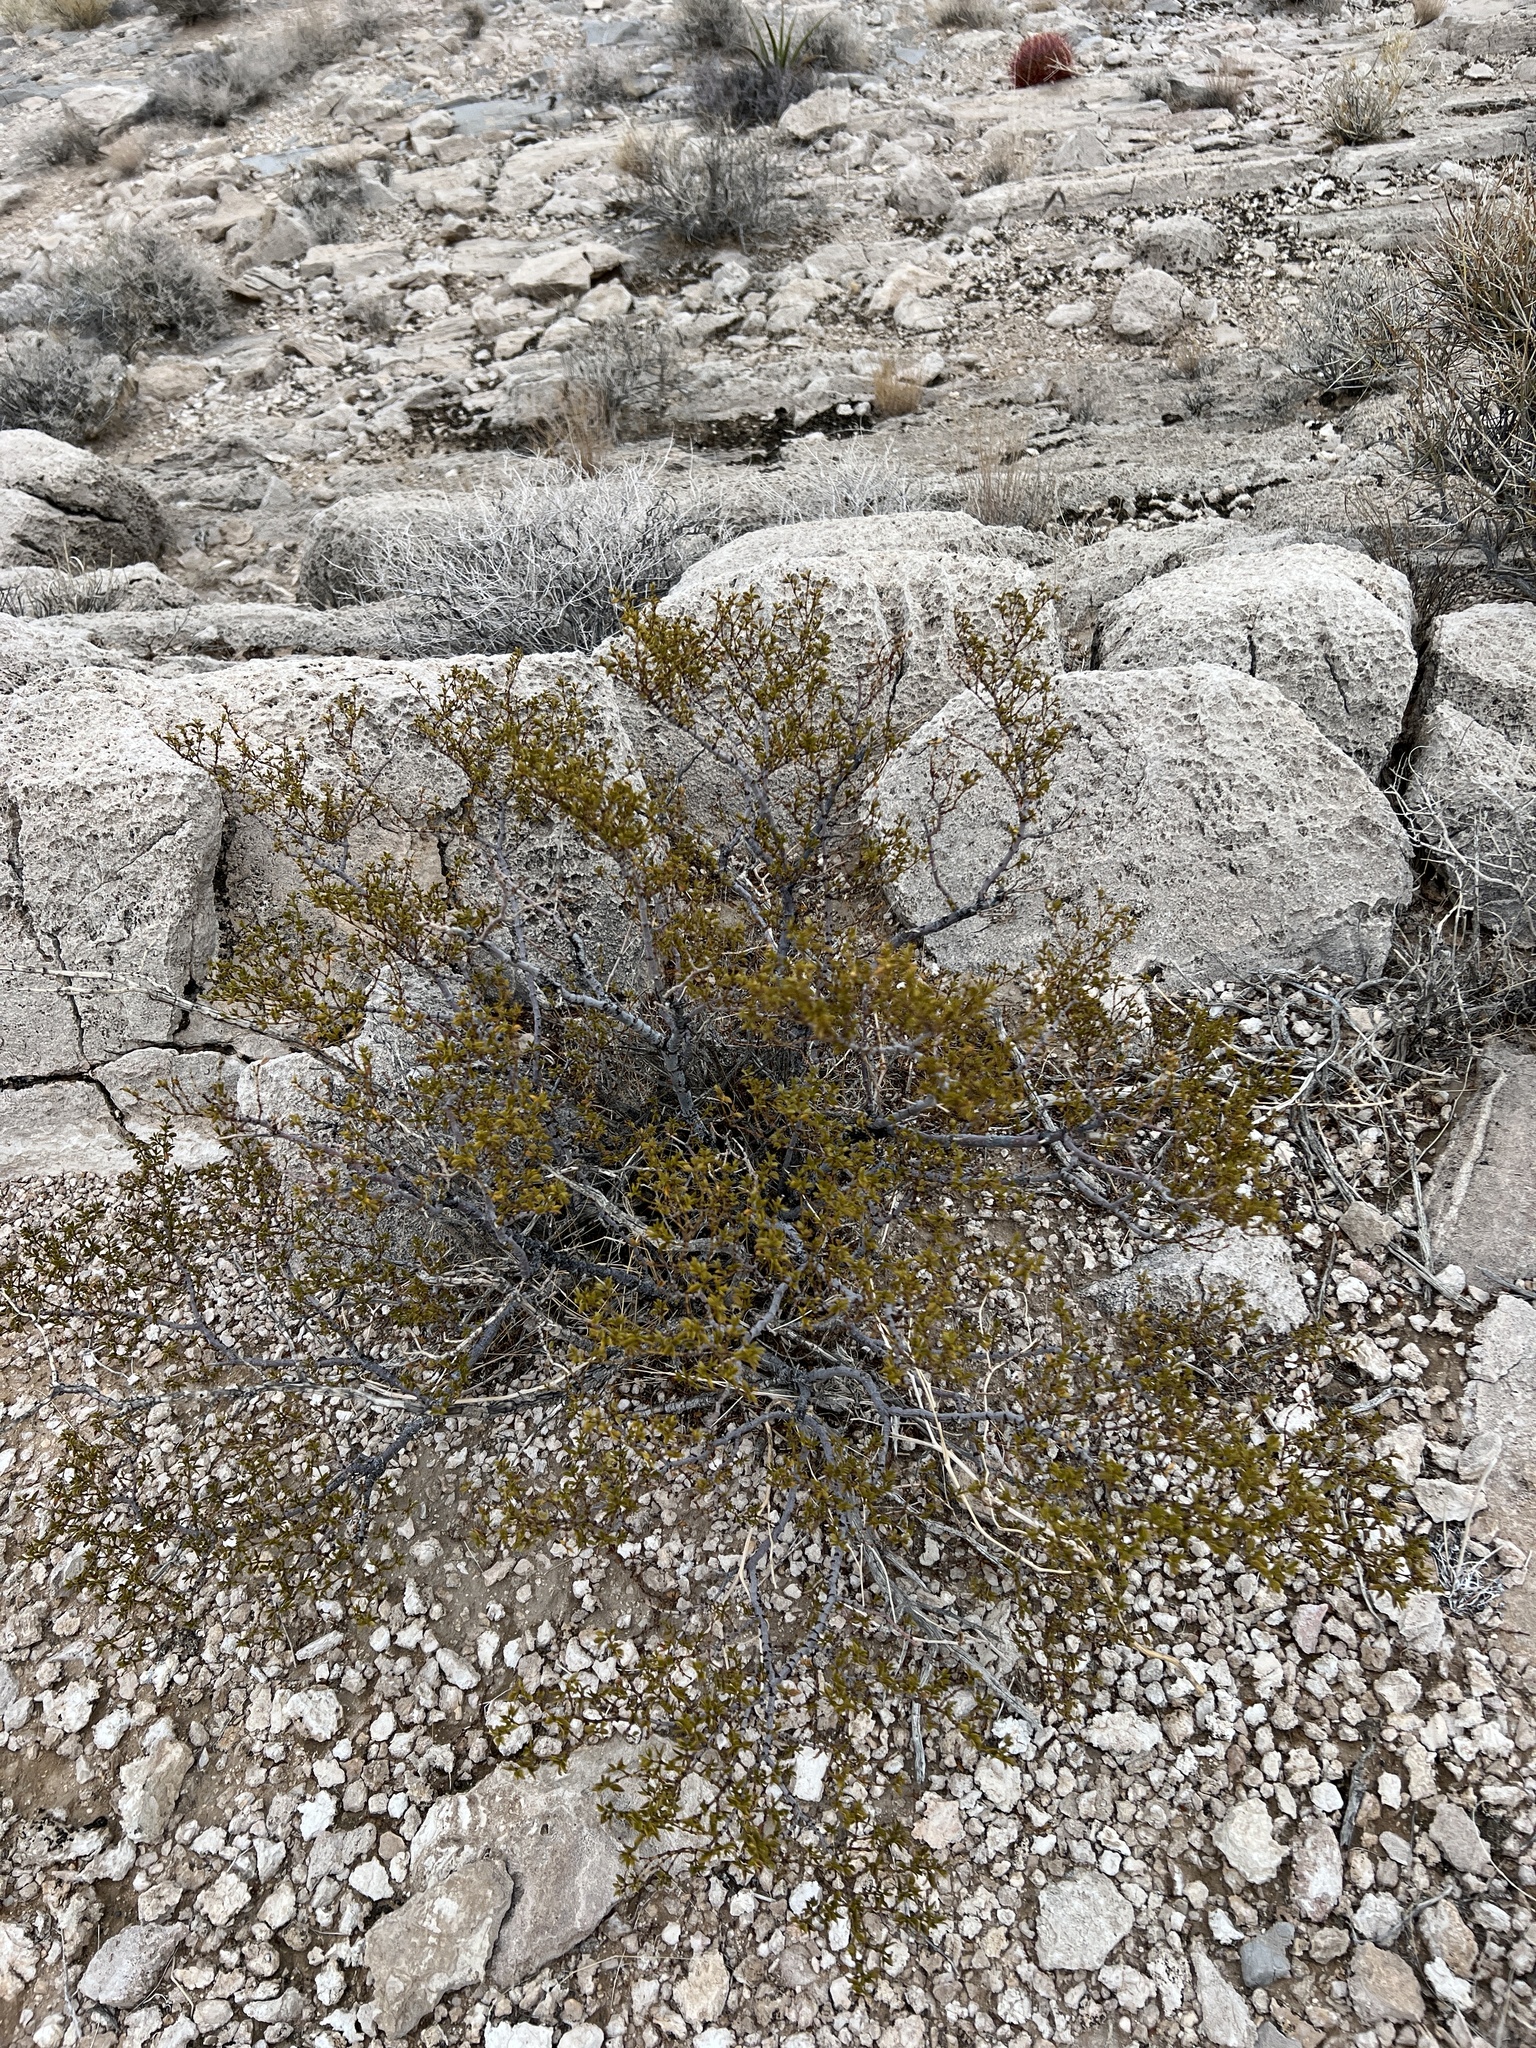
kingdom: Plantae
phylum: Tracheophyta
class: Magnoliopsida
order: Zygophyllales
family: Zygophyllaceae
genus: Larrea
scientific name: Larrea tridentata
